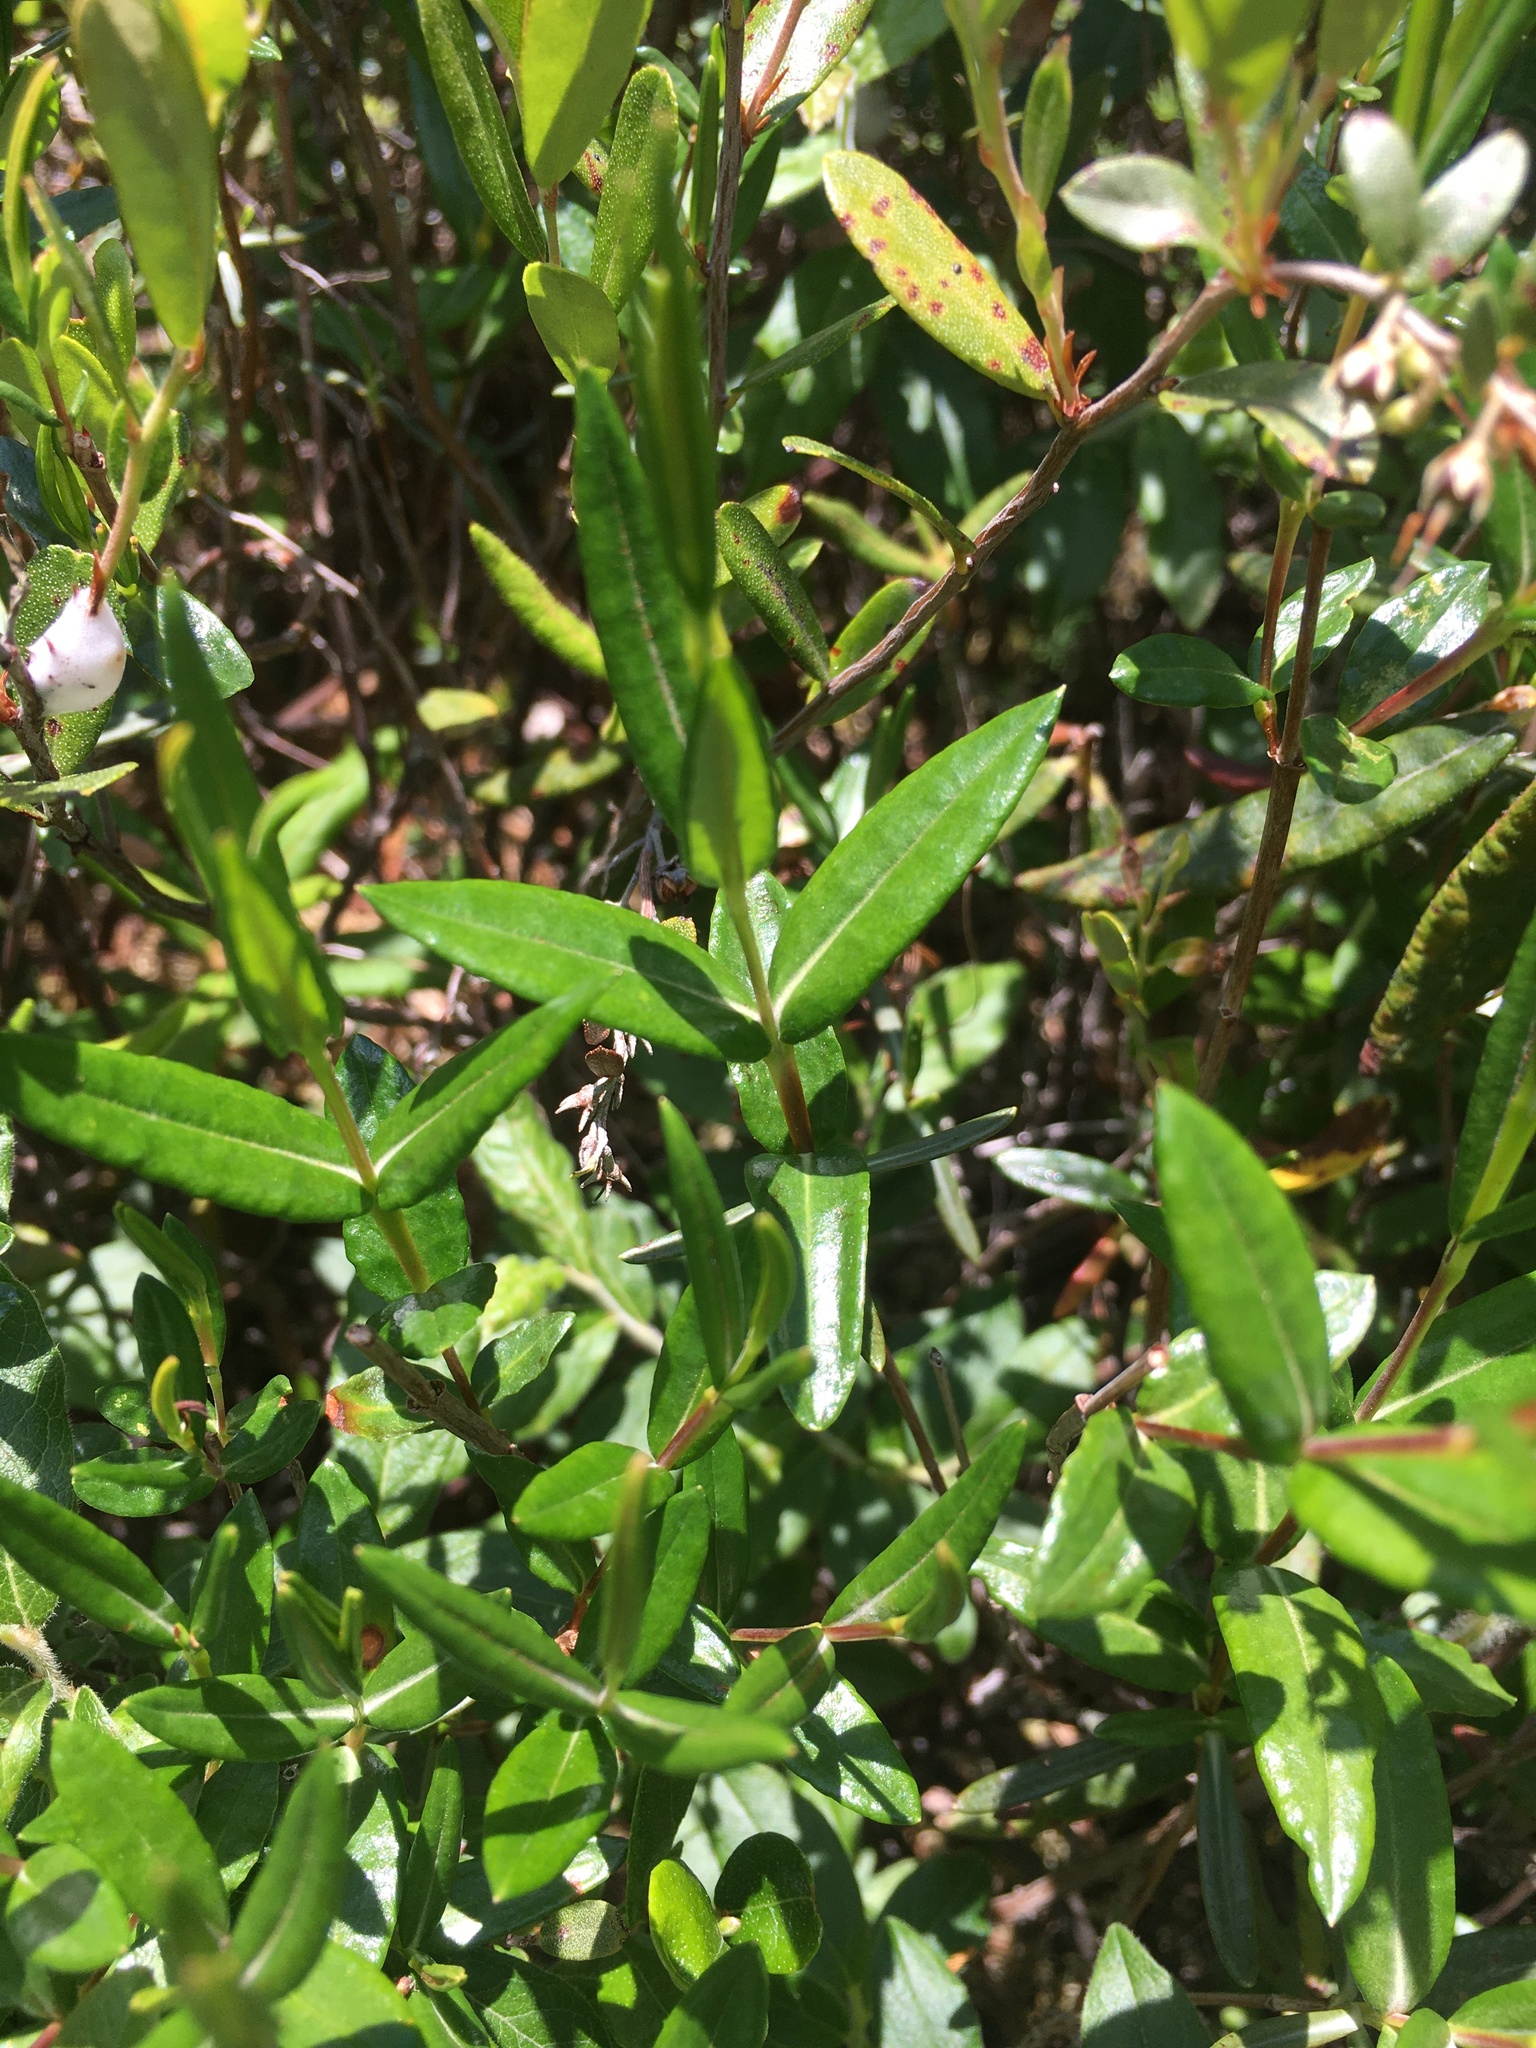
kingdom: Plantae
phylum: Tracheophyta
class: Magnoliopsida
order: Ericales
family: Ericaceae
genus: Kalmia
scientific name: Kalmia polifolia
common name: Bog-laurel
